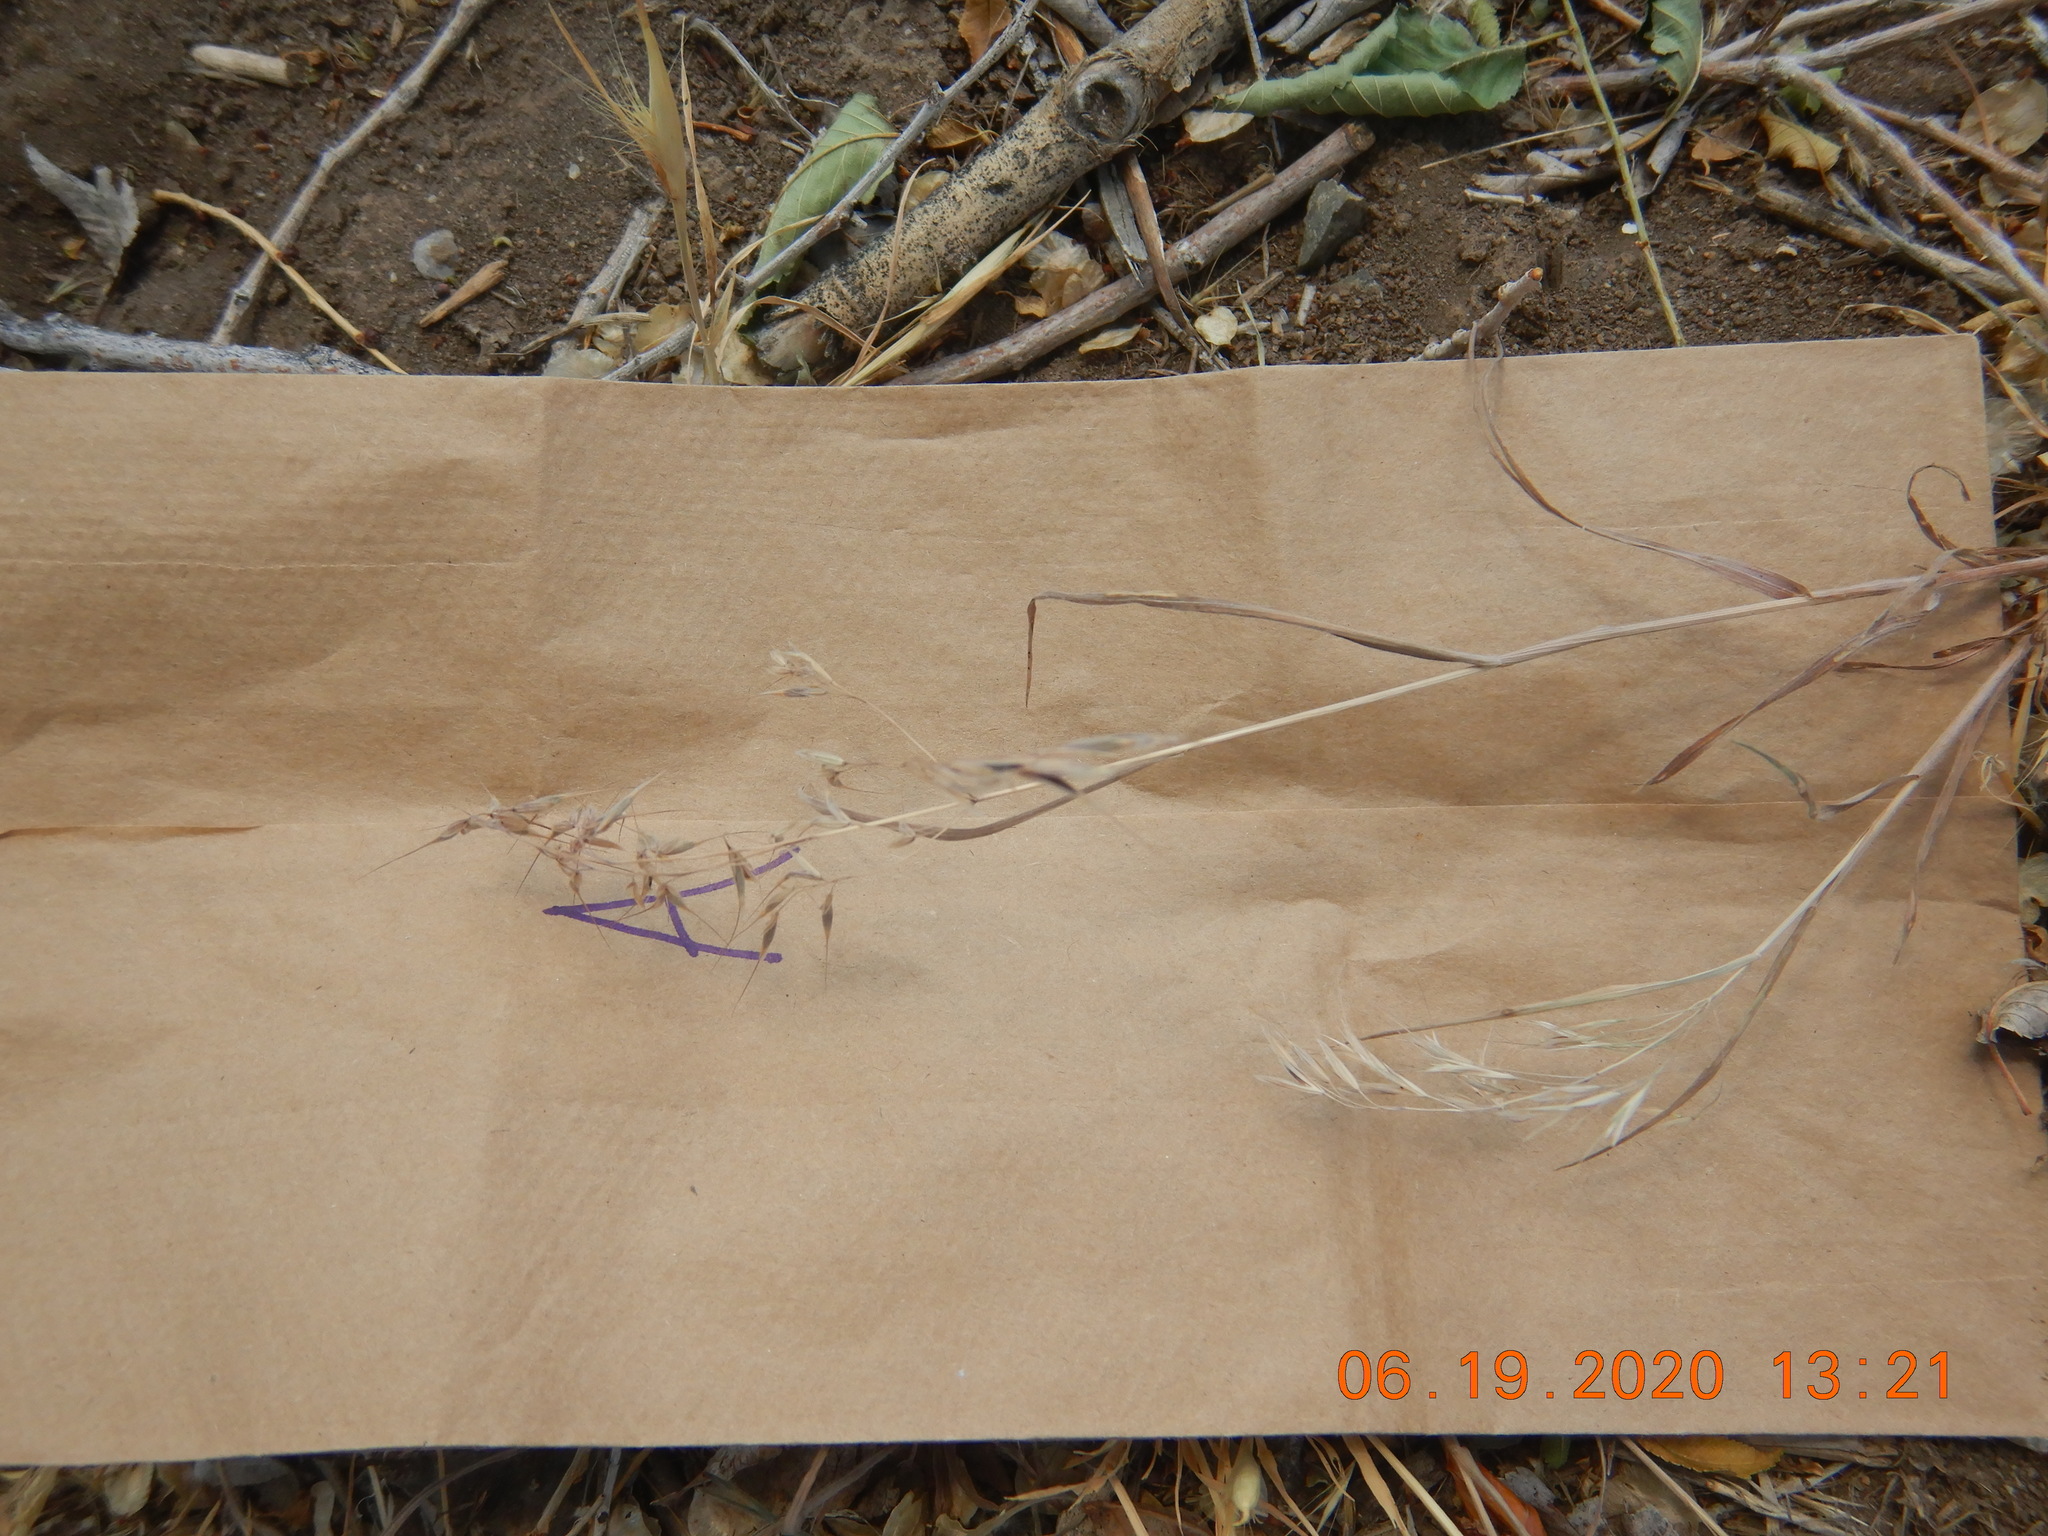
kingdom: Plantae
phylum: Tracheophyta
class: Liliopsida
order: Poales
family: Poaceae
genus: Bromus
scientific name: Bromus tectorum
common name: Cheatgrass
